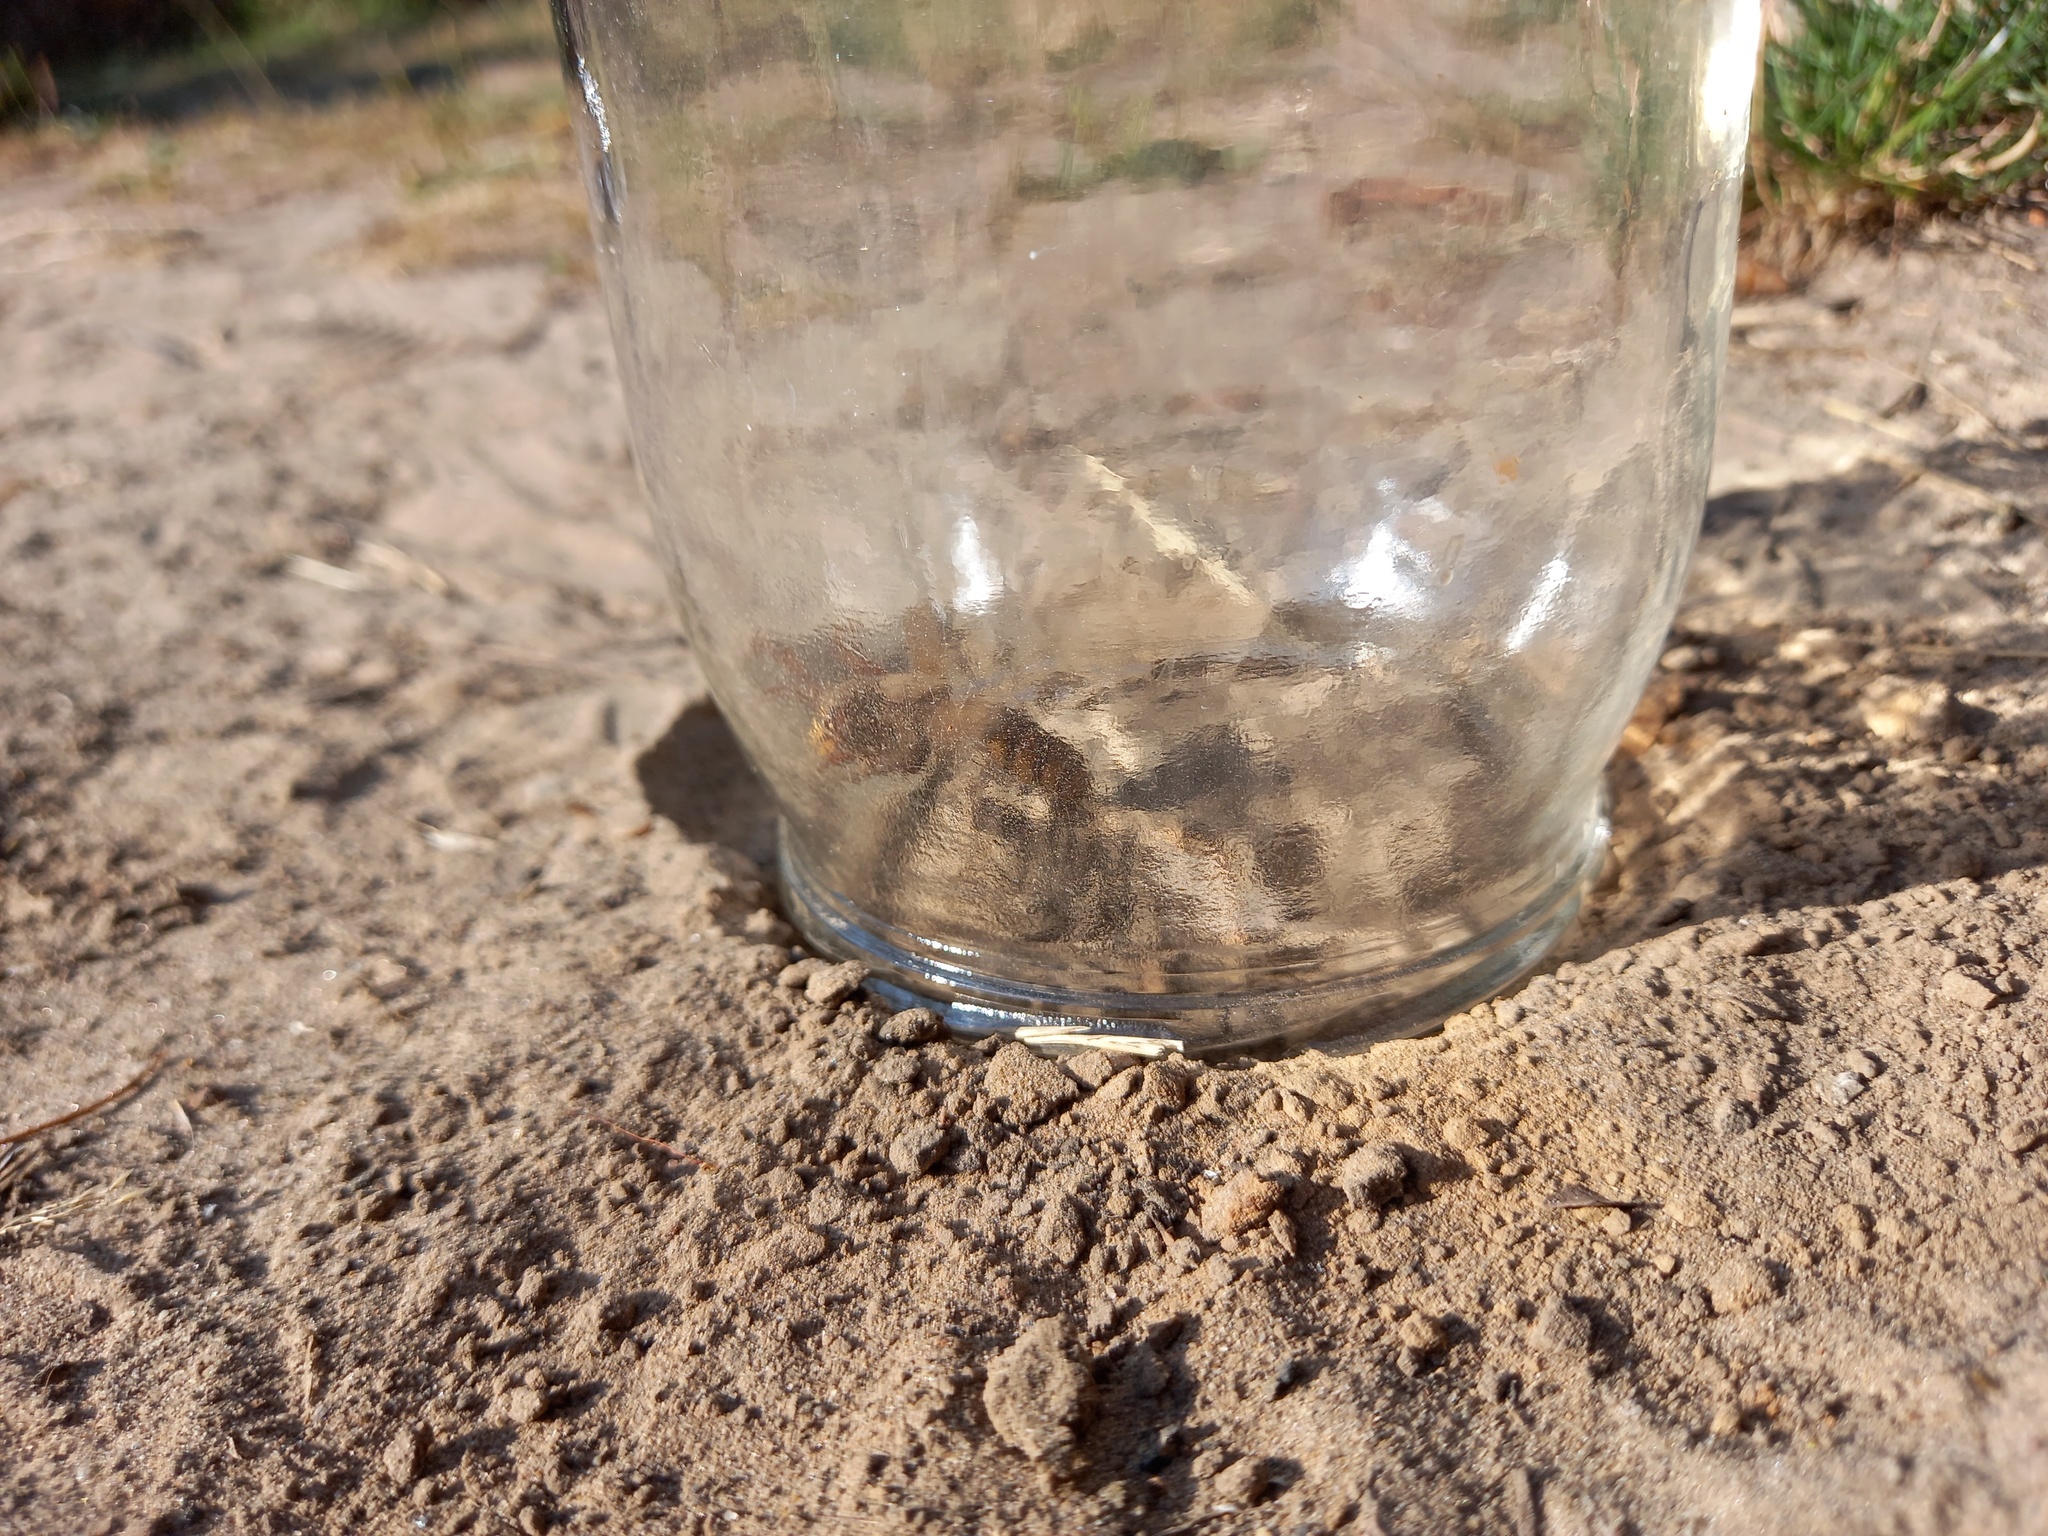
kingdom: Animalia
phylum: Arthropoda
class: Insecta
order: Hymenoptera
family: Vespidae
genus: Vespa
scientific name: Vespa crabro
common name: Hornet
